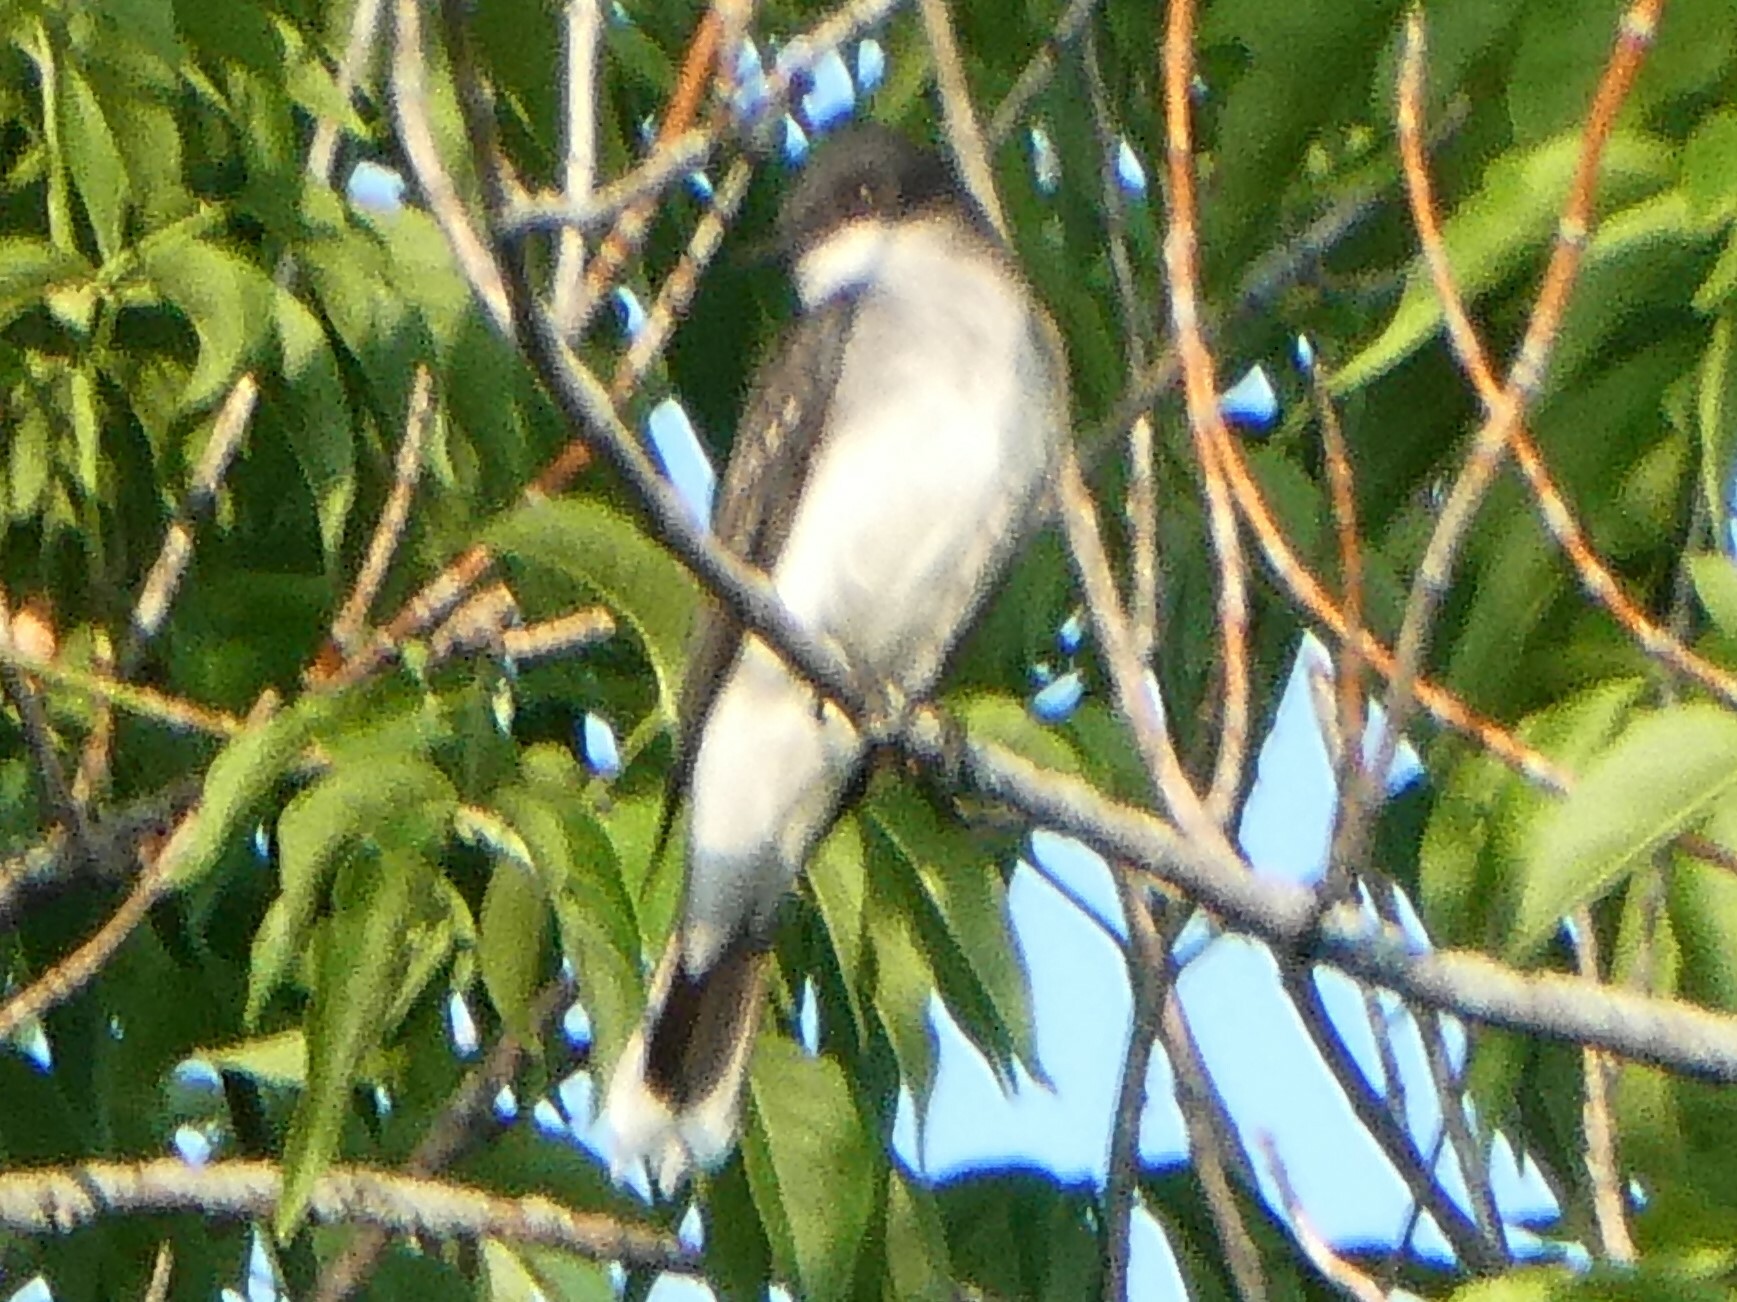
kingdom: Animalia
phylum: Chordata
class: Aves
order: Passeriformes
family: Tyrannidae
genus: Tyrannus
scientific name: Tyrannus tyrannus
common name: Eastern kingbird
